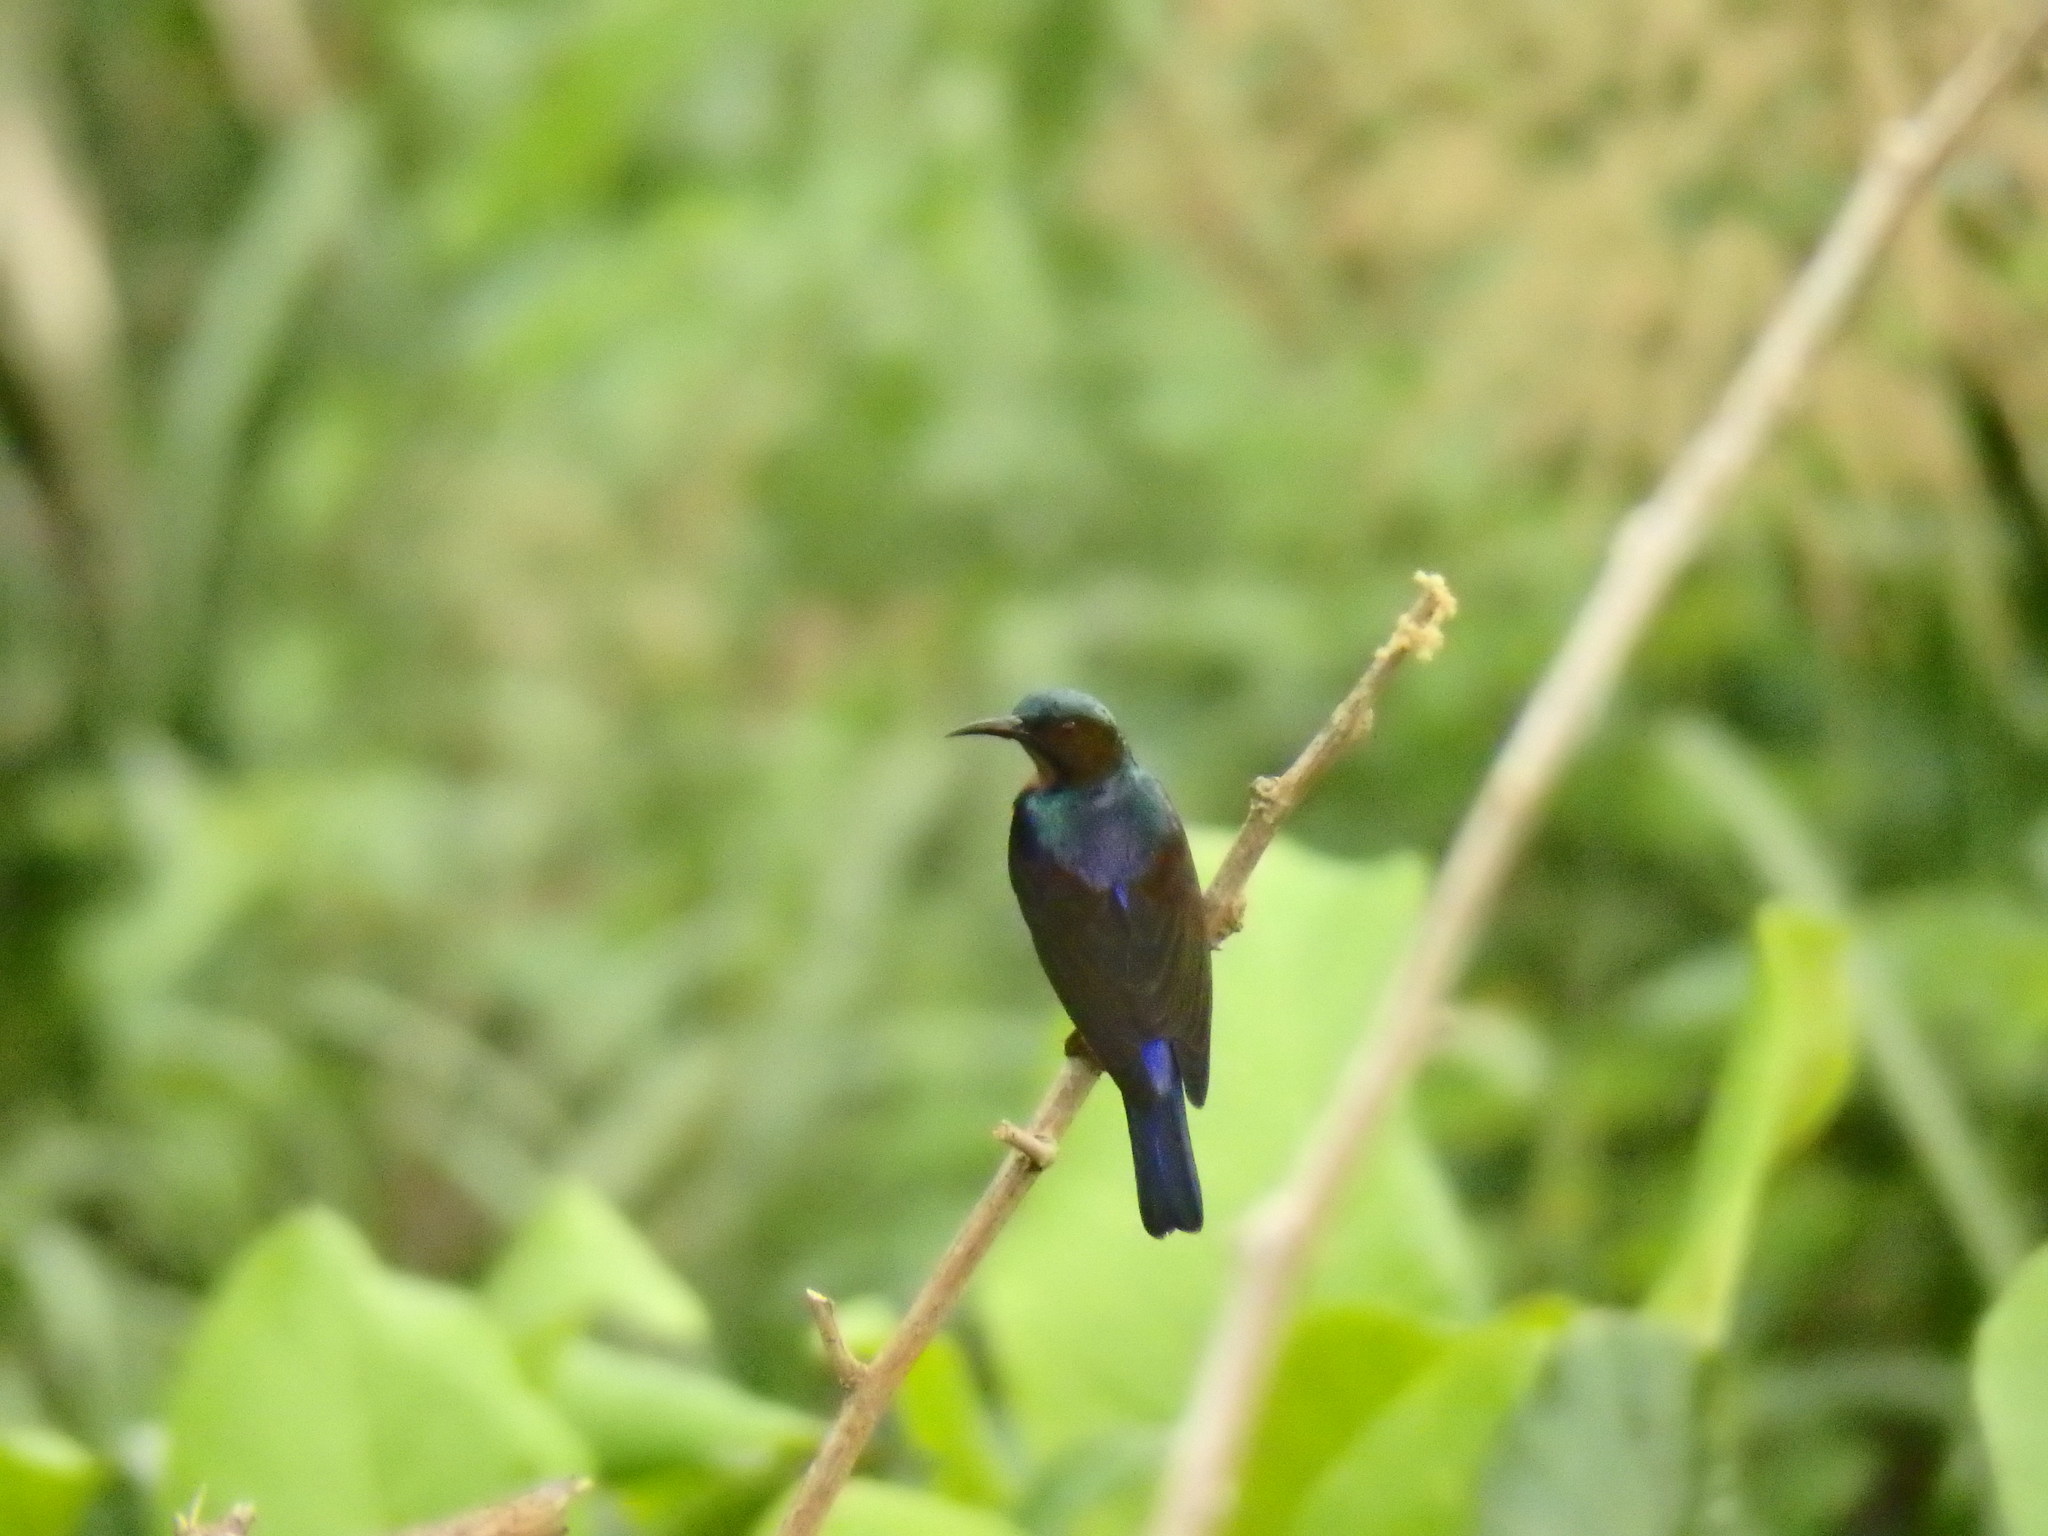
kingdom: Animalia
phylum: Chordata
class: Aves
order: Passeriformes
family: Nectariniidae
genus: Anthreptes
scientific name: Anthreptes malacensis
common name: Brown-throated sunbird
